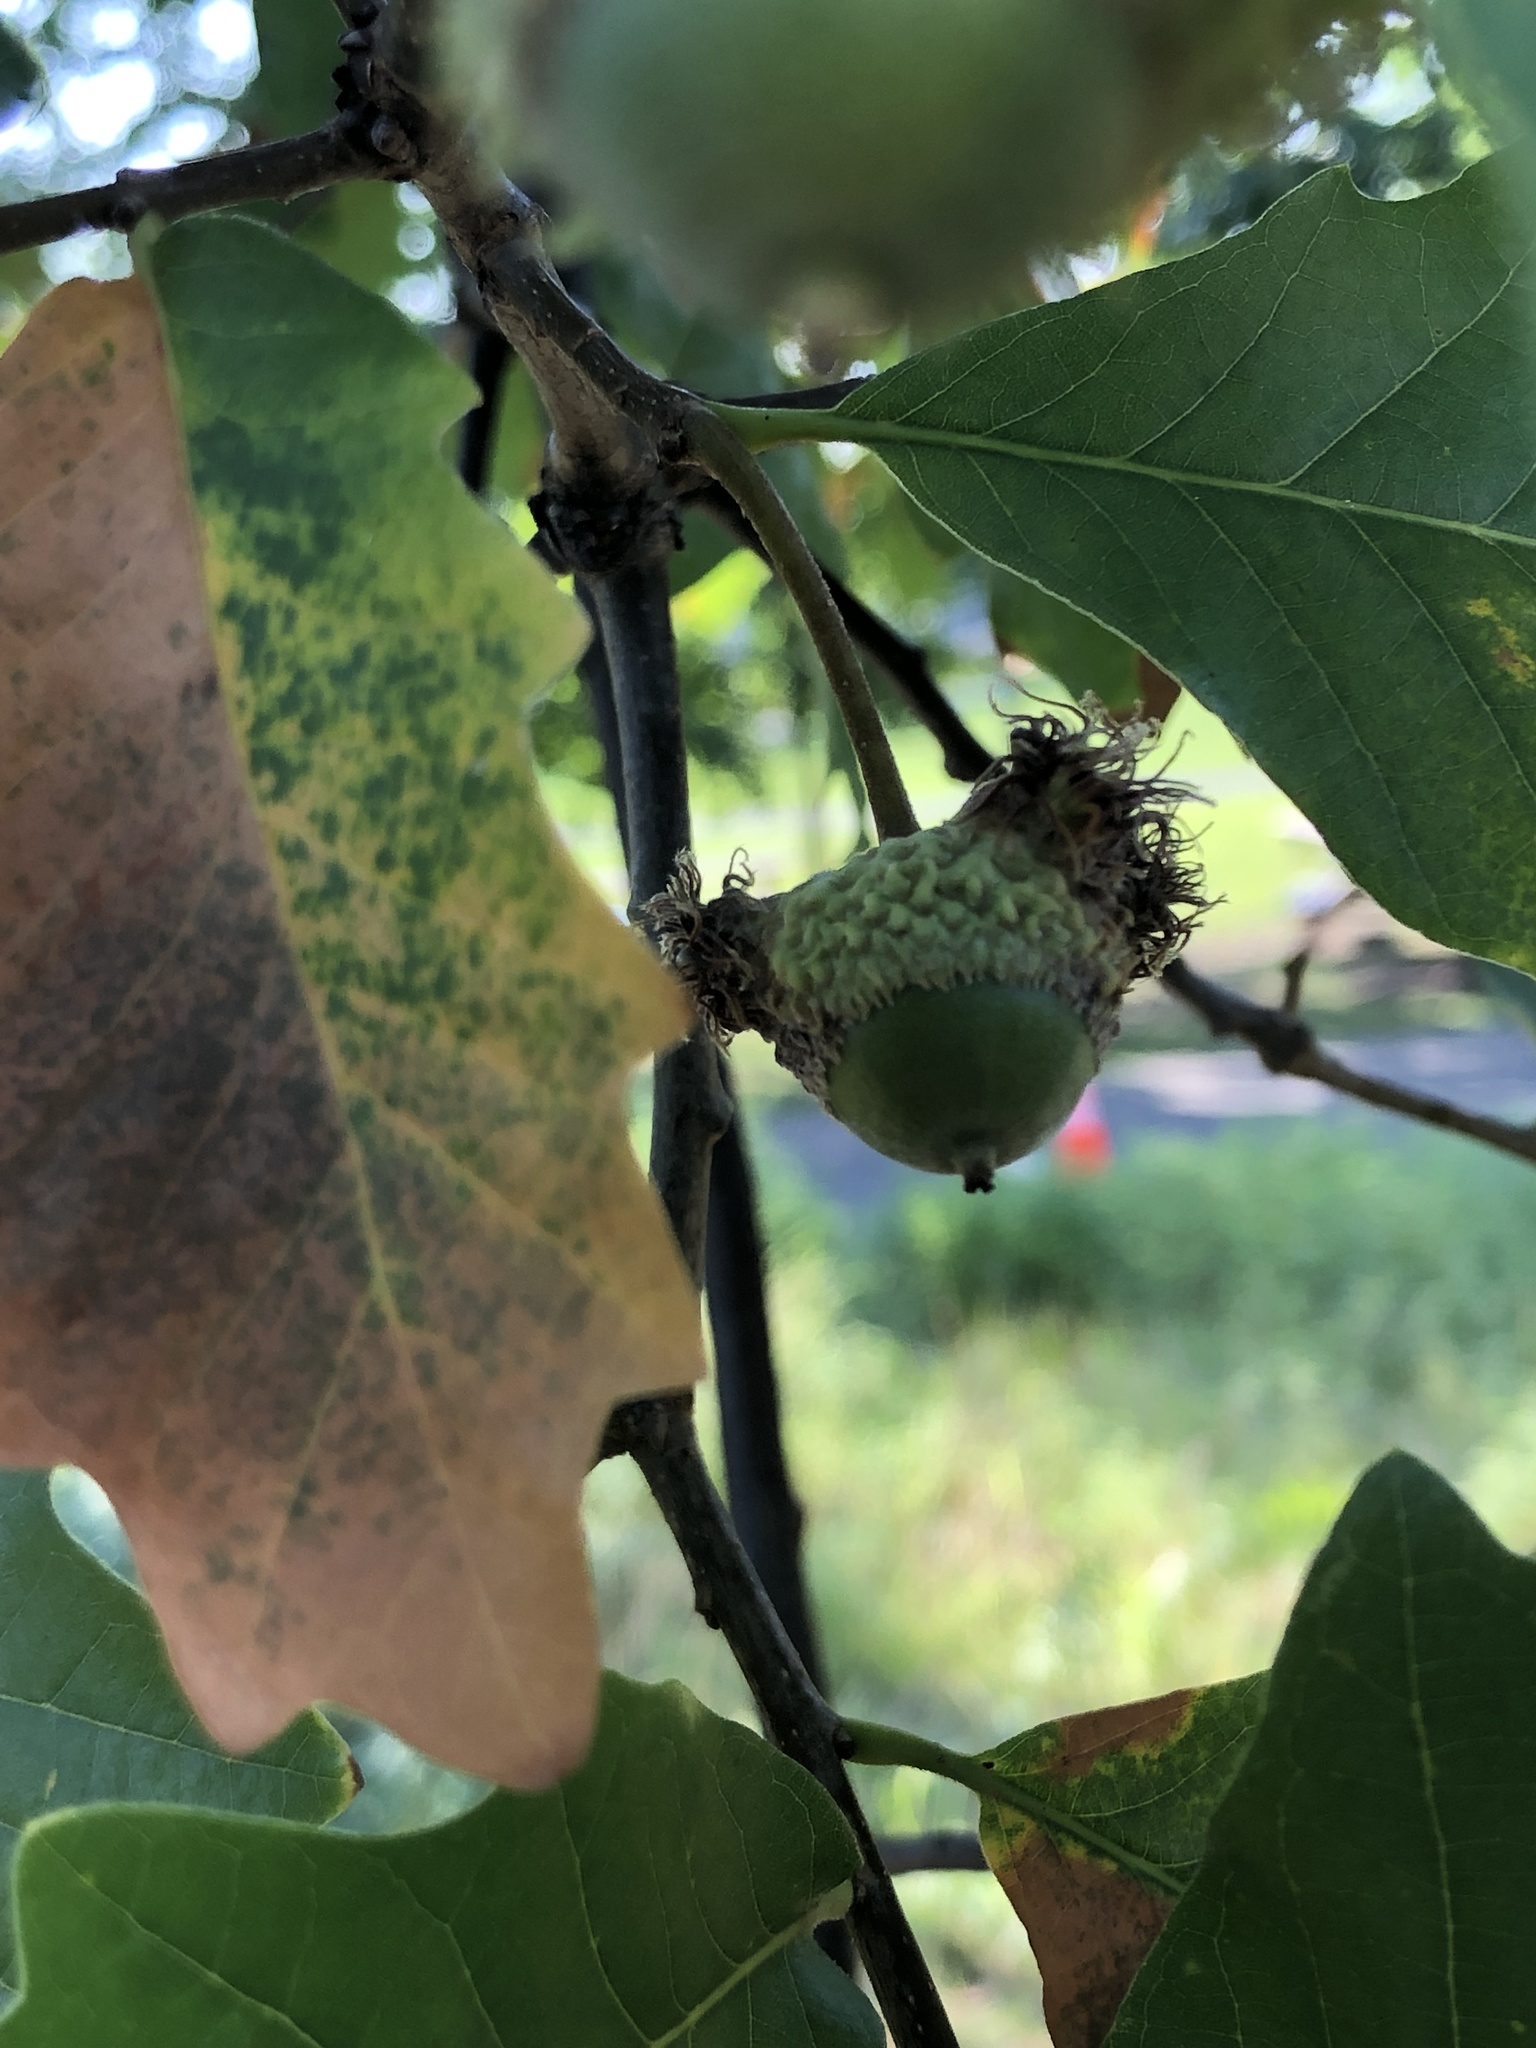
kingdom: Animalia
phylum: Arthropoda
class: Insecta
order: Hymenoptera
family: Cynipidae
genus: Andricus
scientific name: Andricus
